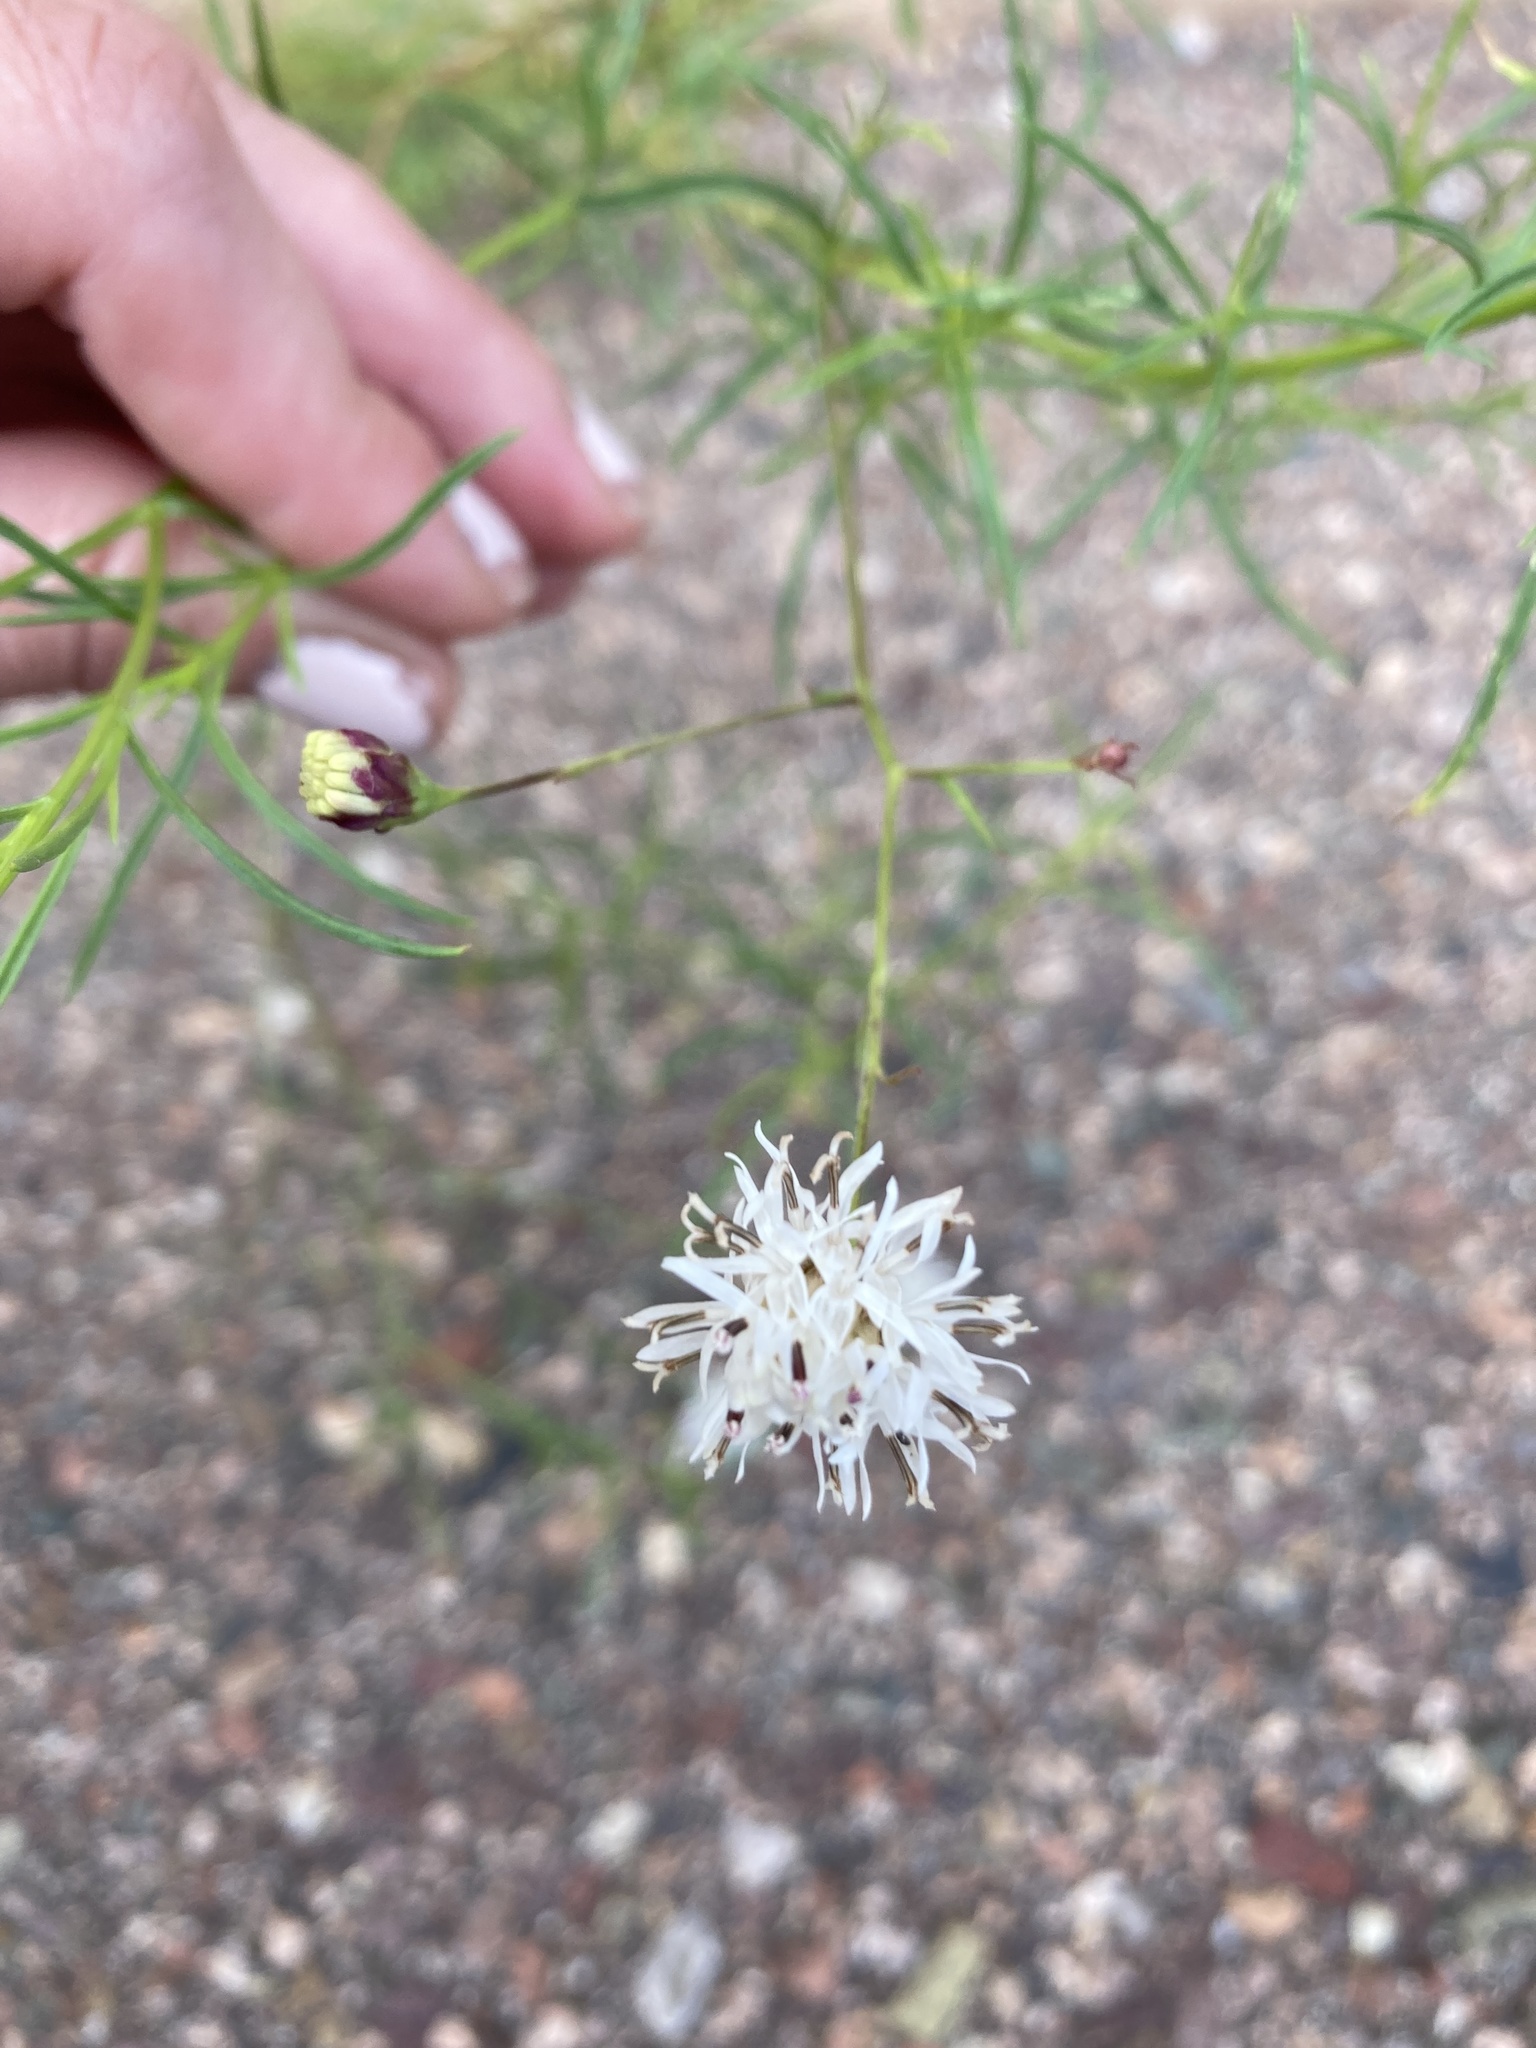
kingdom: Plantae
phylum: Tracheophyta
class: Magnoliopsida
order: Asterales
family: Asteraceae
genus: Hymenothrix
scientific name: Hymenothrix wrightii
